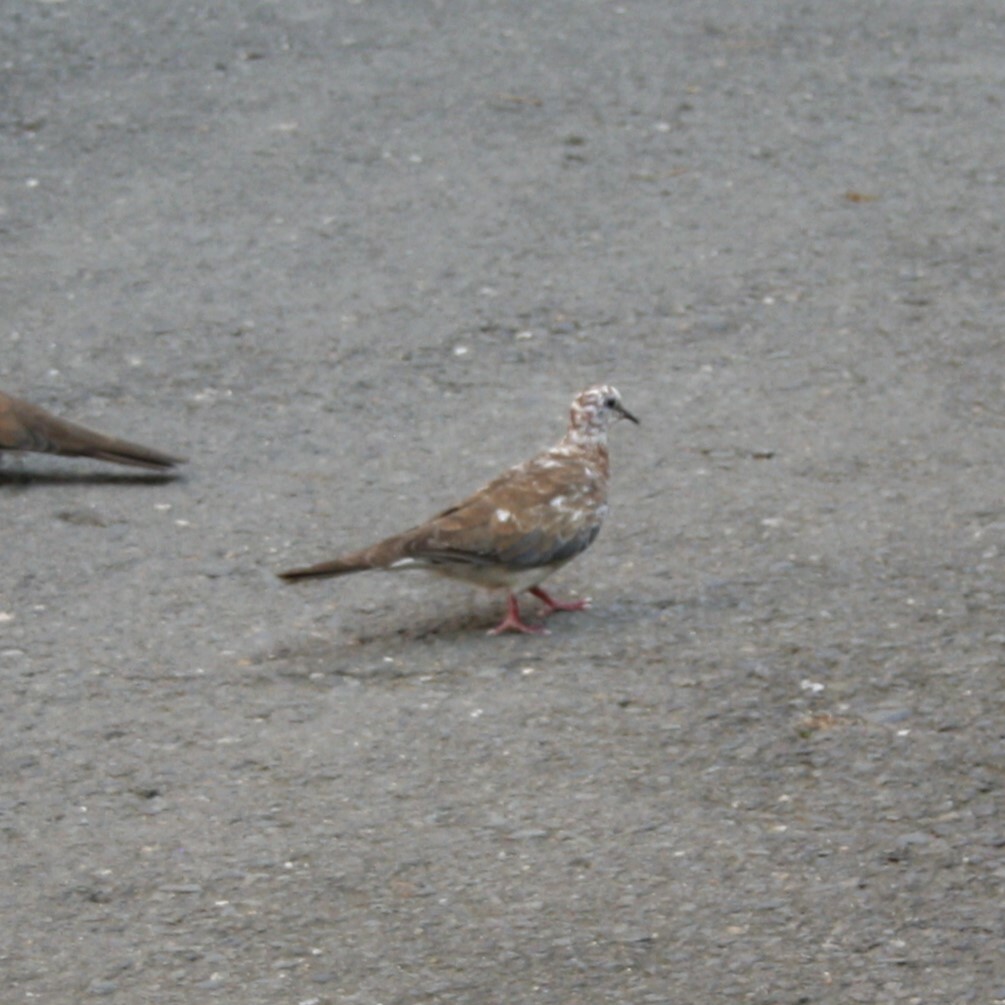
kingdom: Animalia
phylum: Chordata
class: Aves
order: Columbiformes
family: Columbidae
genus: Spilopelia
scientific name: Spilopelia senegalensis
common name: Laughing dove
